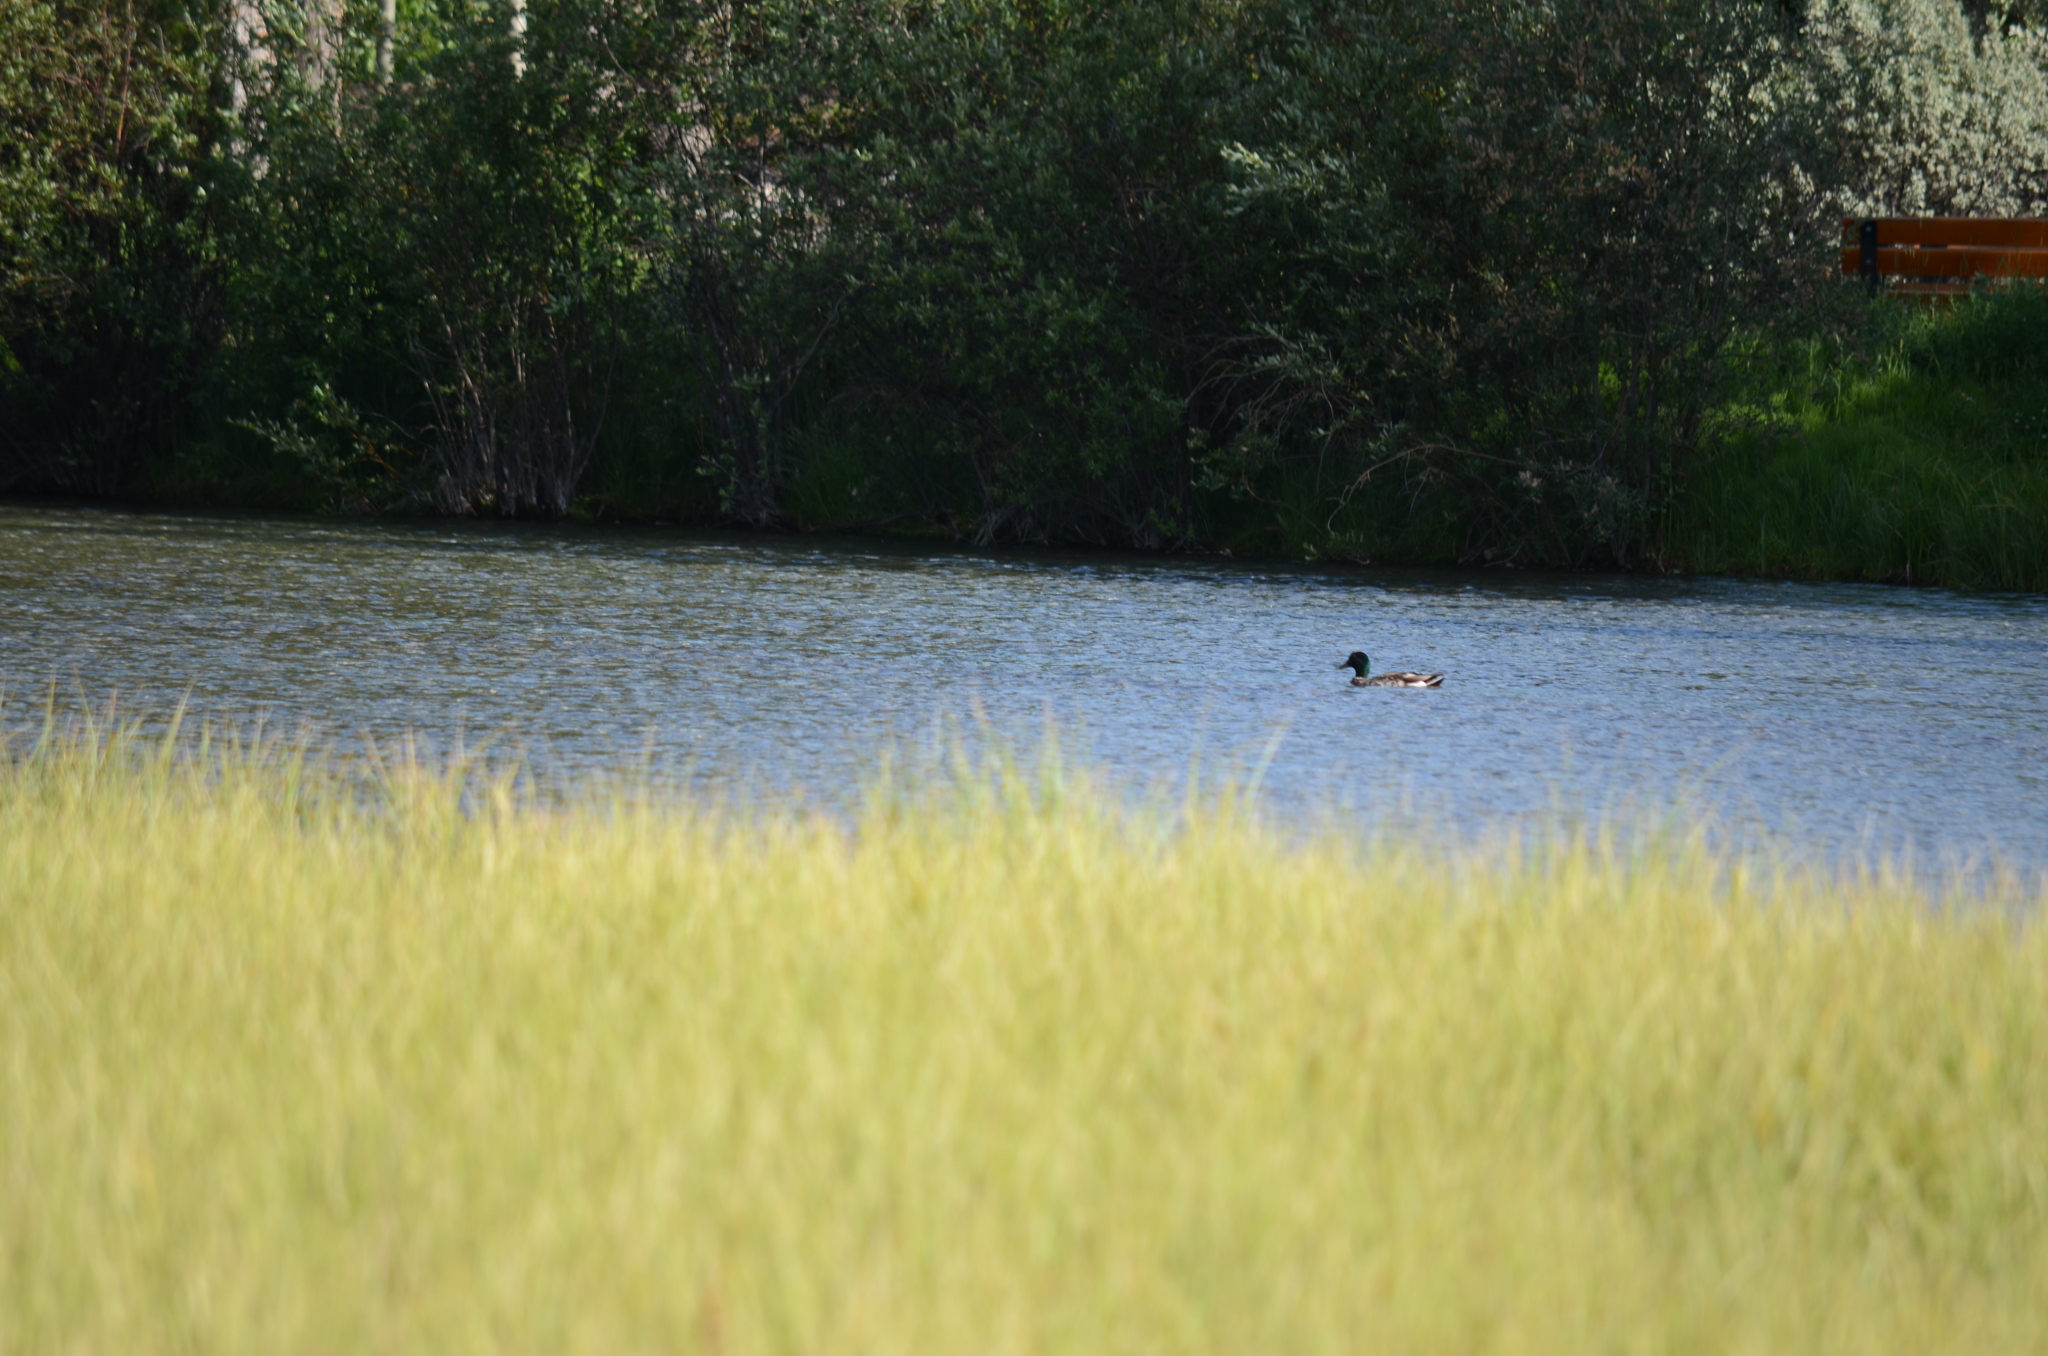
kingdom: Animalia
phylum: Chordata
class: Aves
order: Anseriformes
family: Anatidae
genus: Anas
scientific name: Anas platyrhynchos
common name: Mallard
